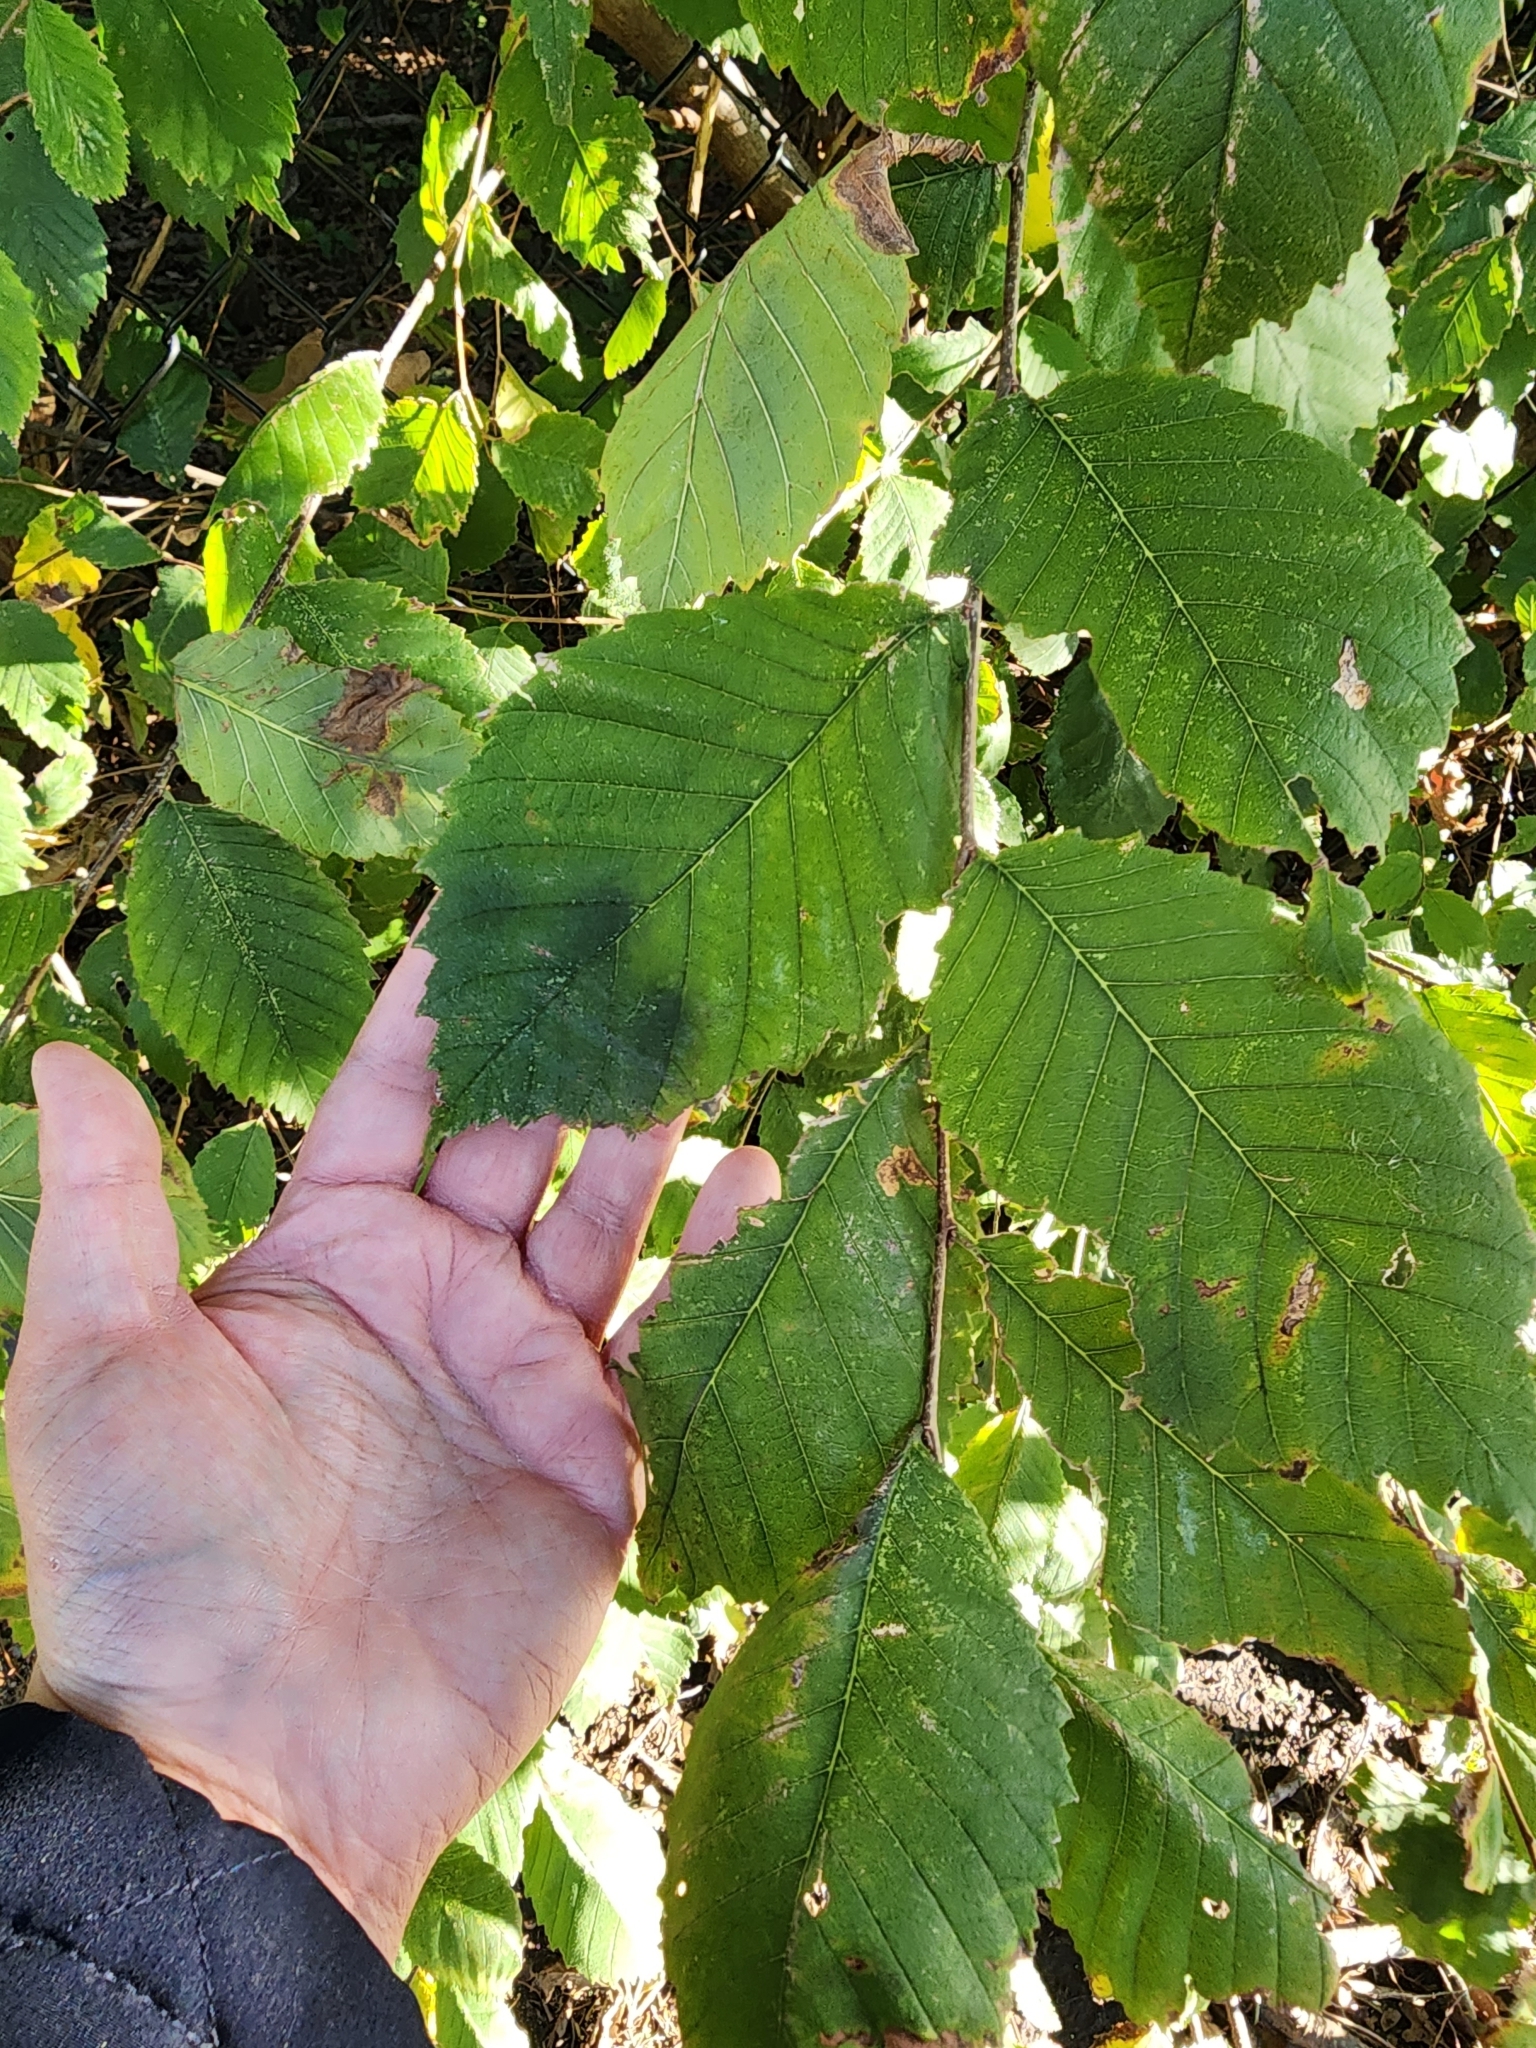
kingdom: Plantae
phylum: Tracheophyta
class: Magnoliopsida
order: Rosales
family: Ulmaceae
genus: Ulmus
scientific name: Ulmus americana
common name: American elm
